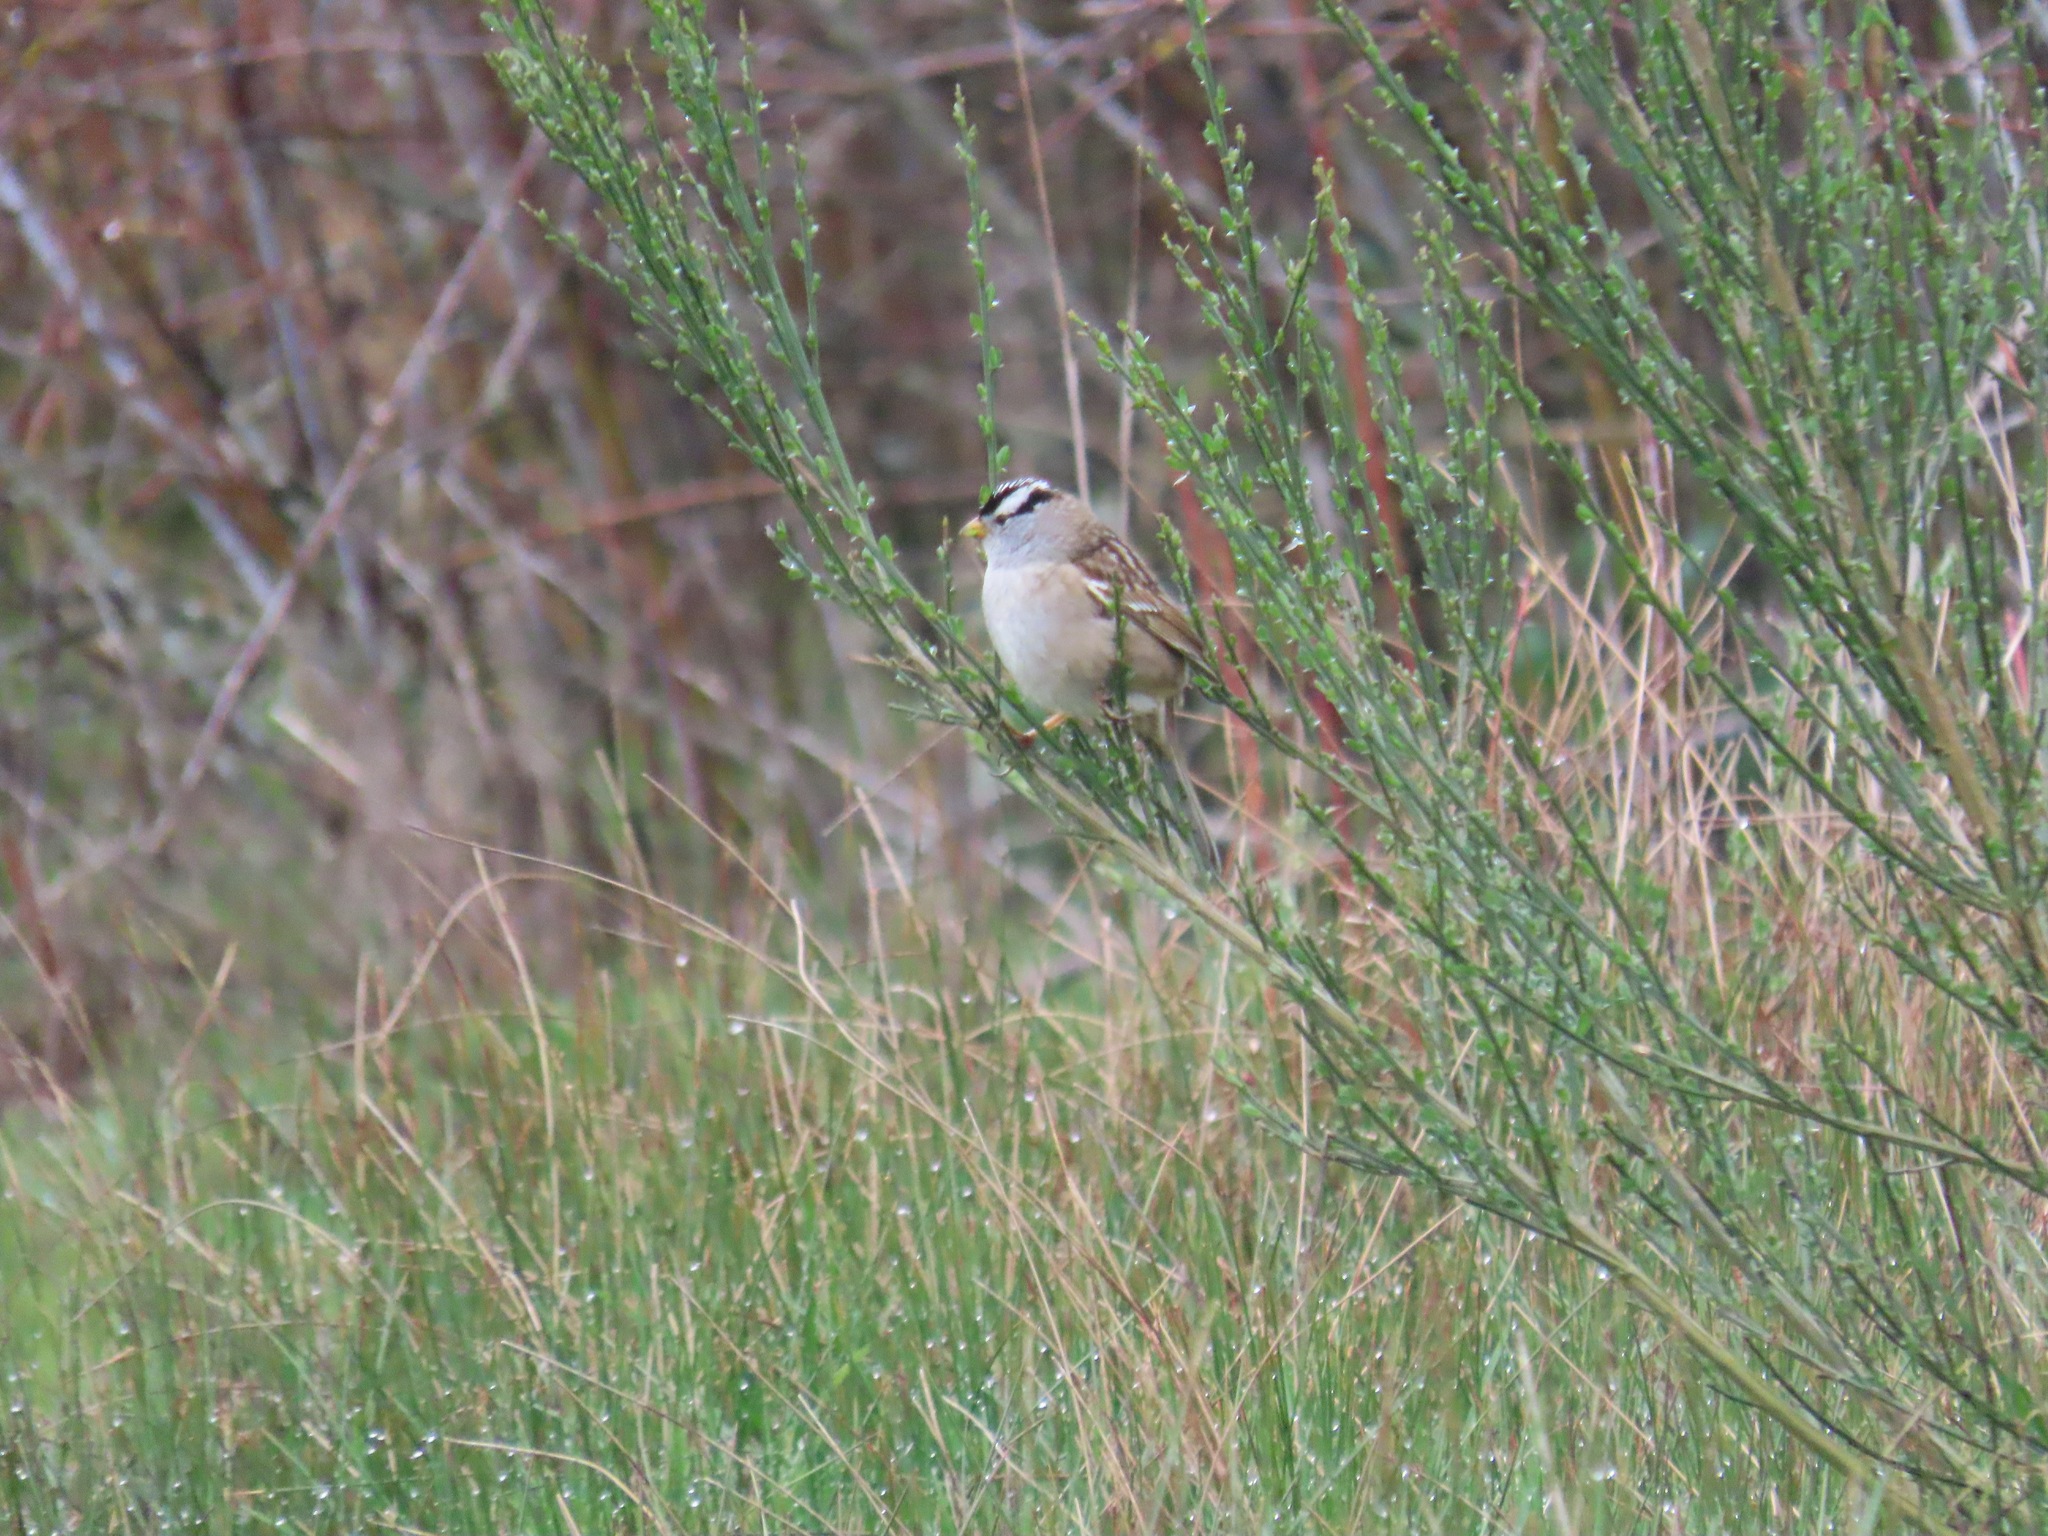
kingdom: Animalia
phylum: Chordata
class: Aves
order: Passeriformes
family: Passerellidae
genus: Zonotrichia
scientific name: Zonotrichia leucophrys
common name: White-crowned sparrow
